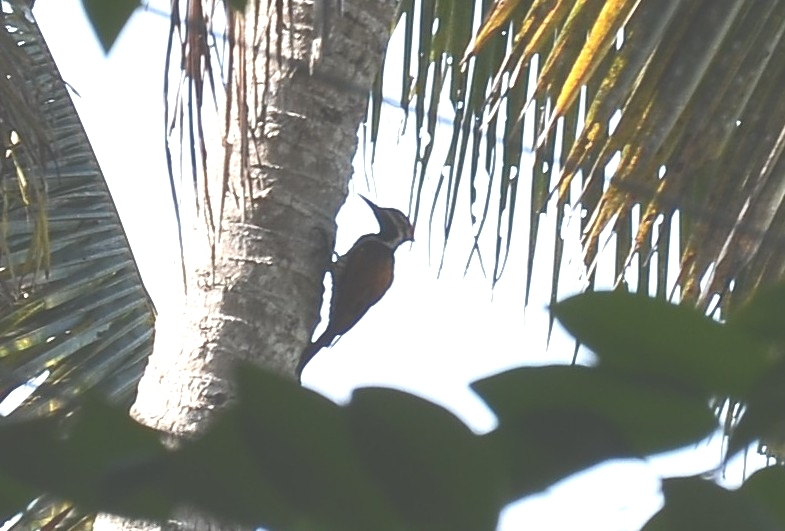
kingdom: Animalia
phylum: Chordata
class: Aves
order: Piciformes
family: Picidae
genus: Dinopium
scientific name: Dinopium benghalense
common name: Black-rumped flameback
